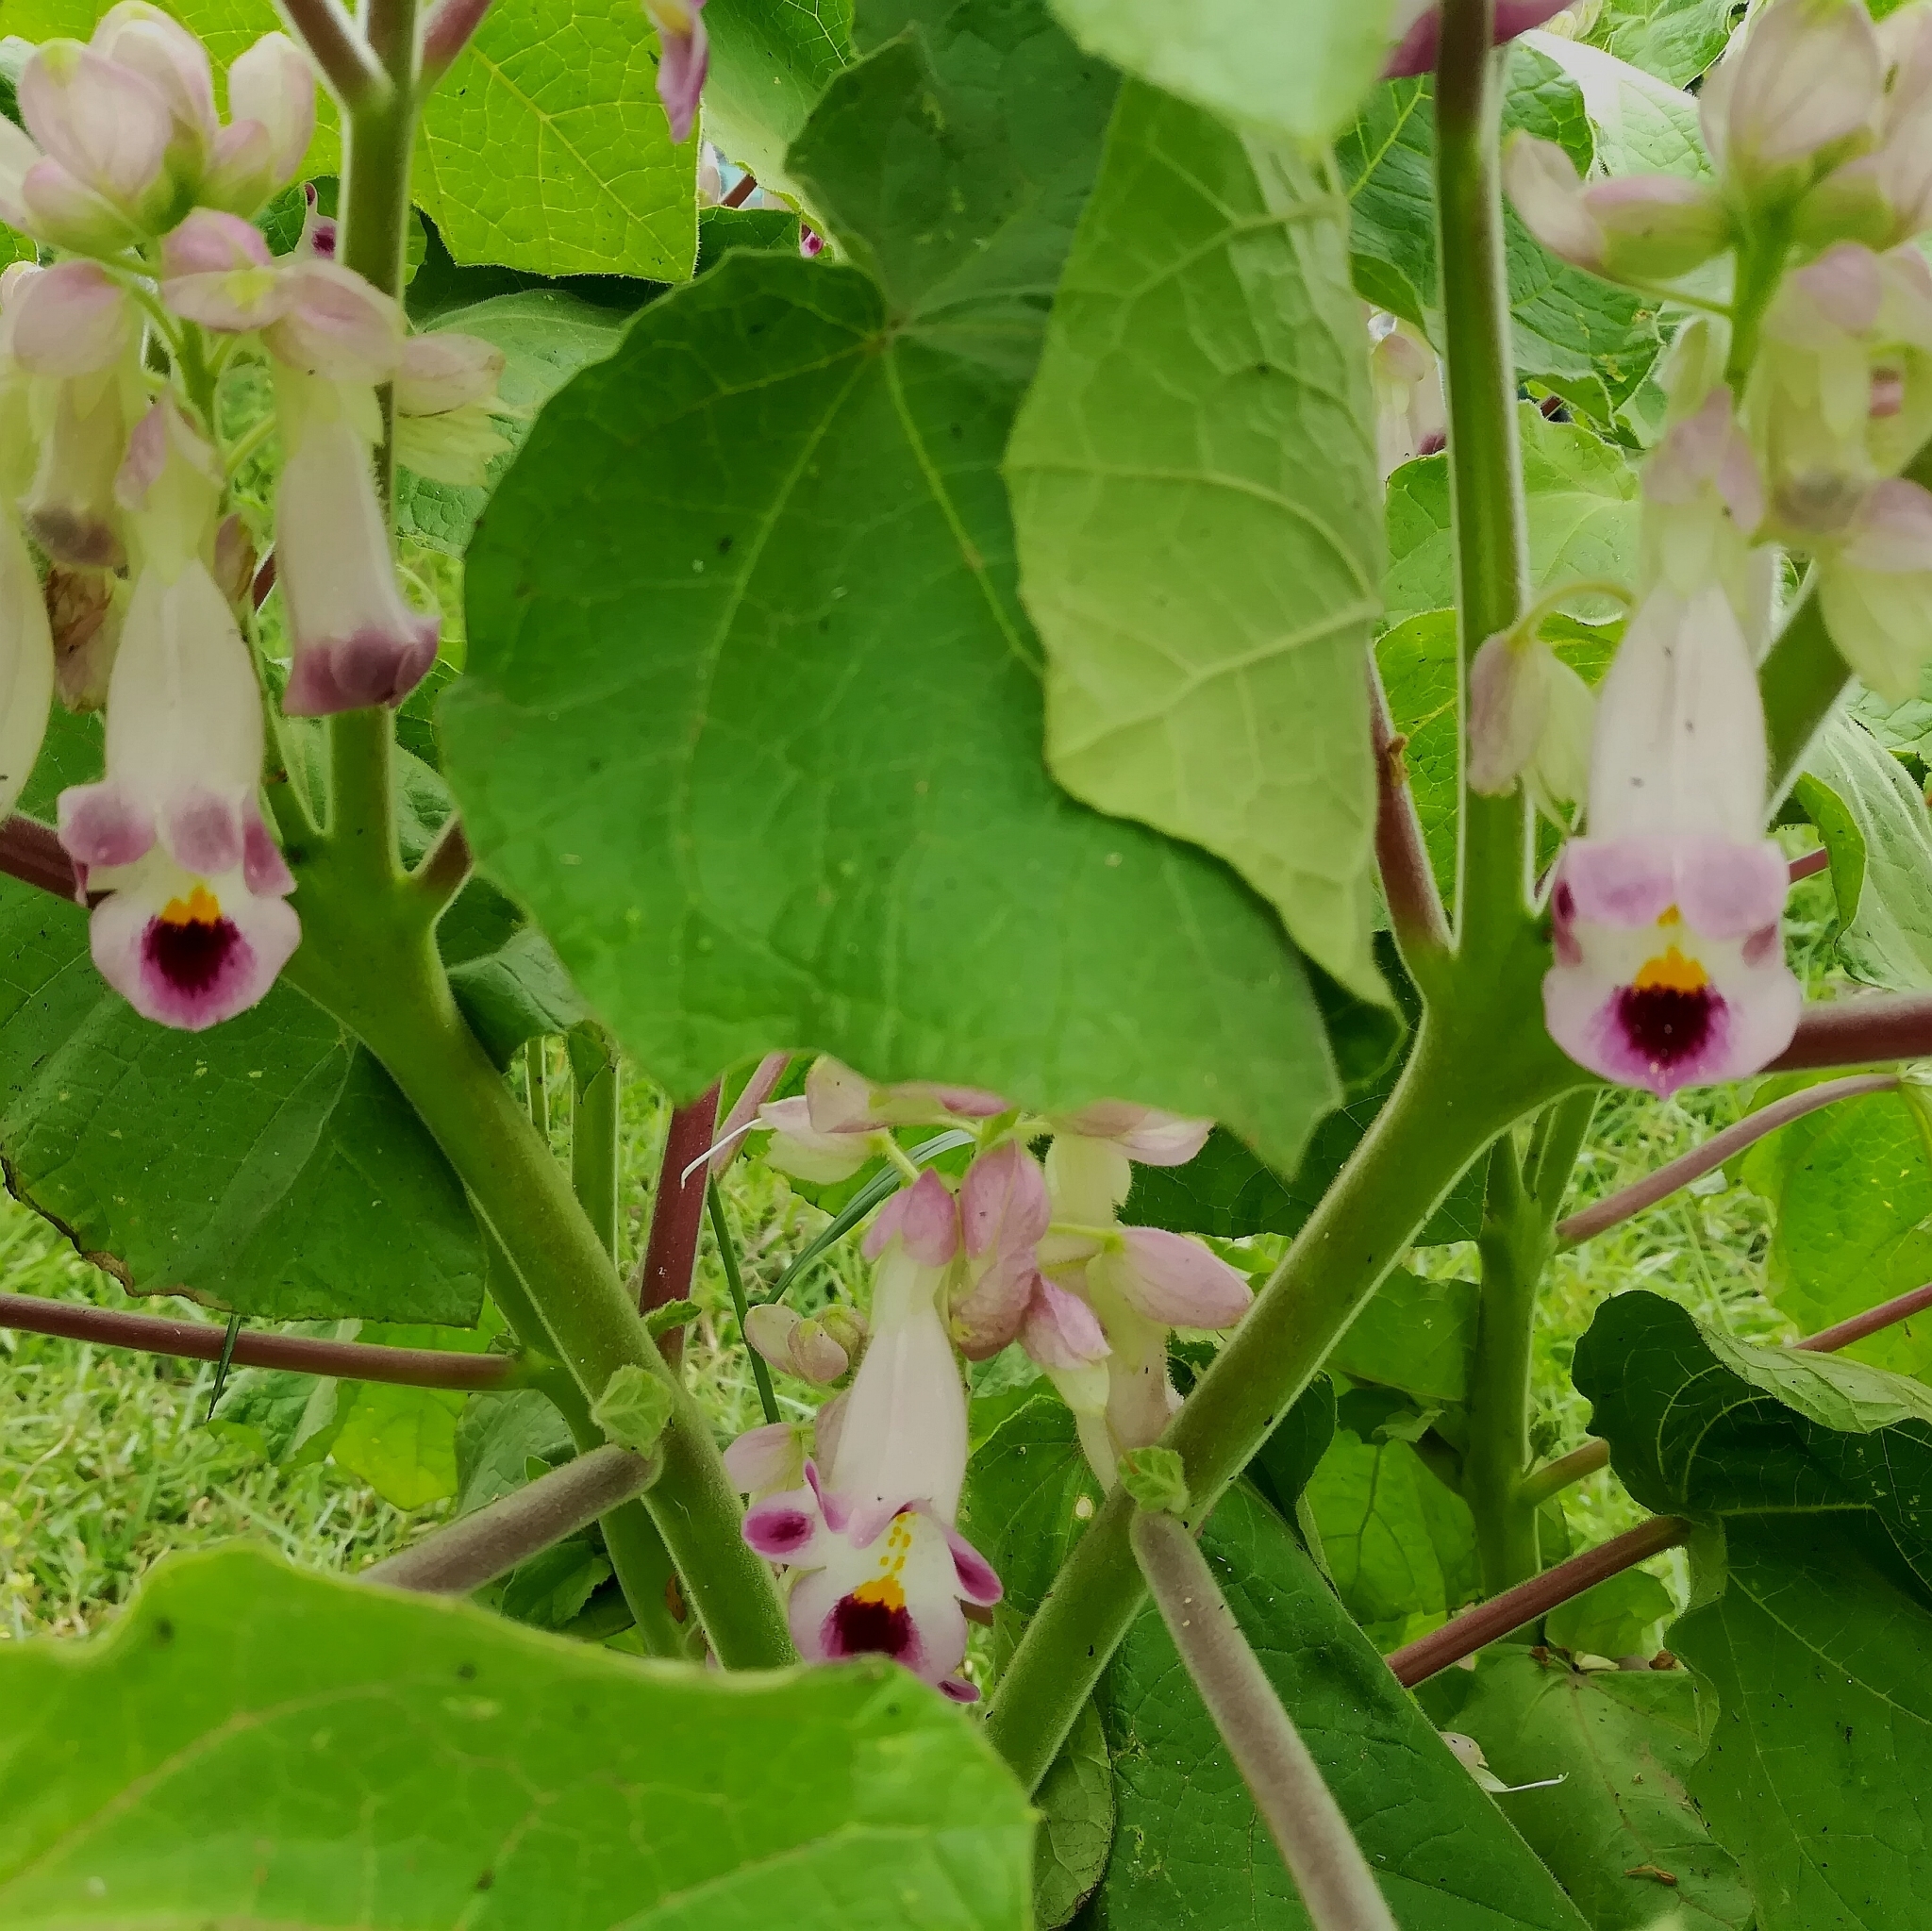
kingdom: Plantae
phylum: Tracheophyta
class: Magnoliopsida
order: Lamiales
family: Martyniaceae
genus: Martynia
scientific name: Martynia annua
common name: Tiger's-claw
